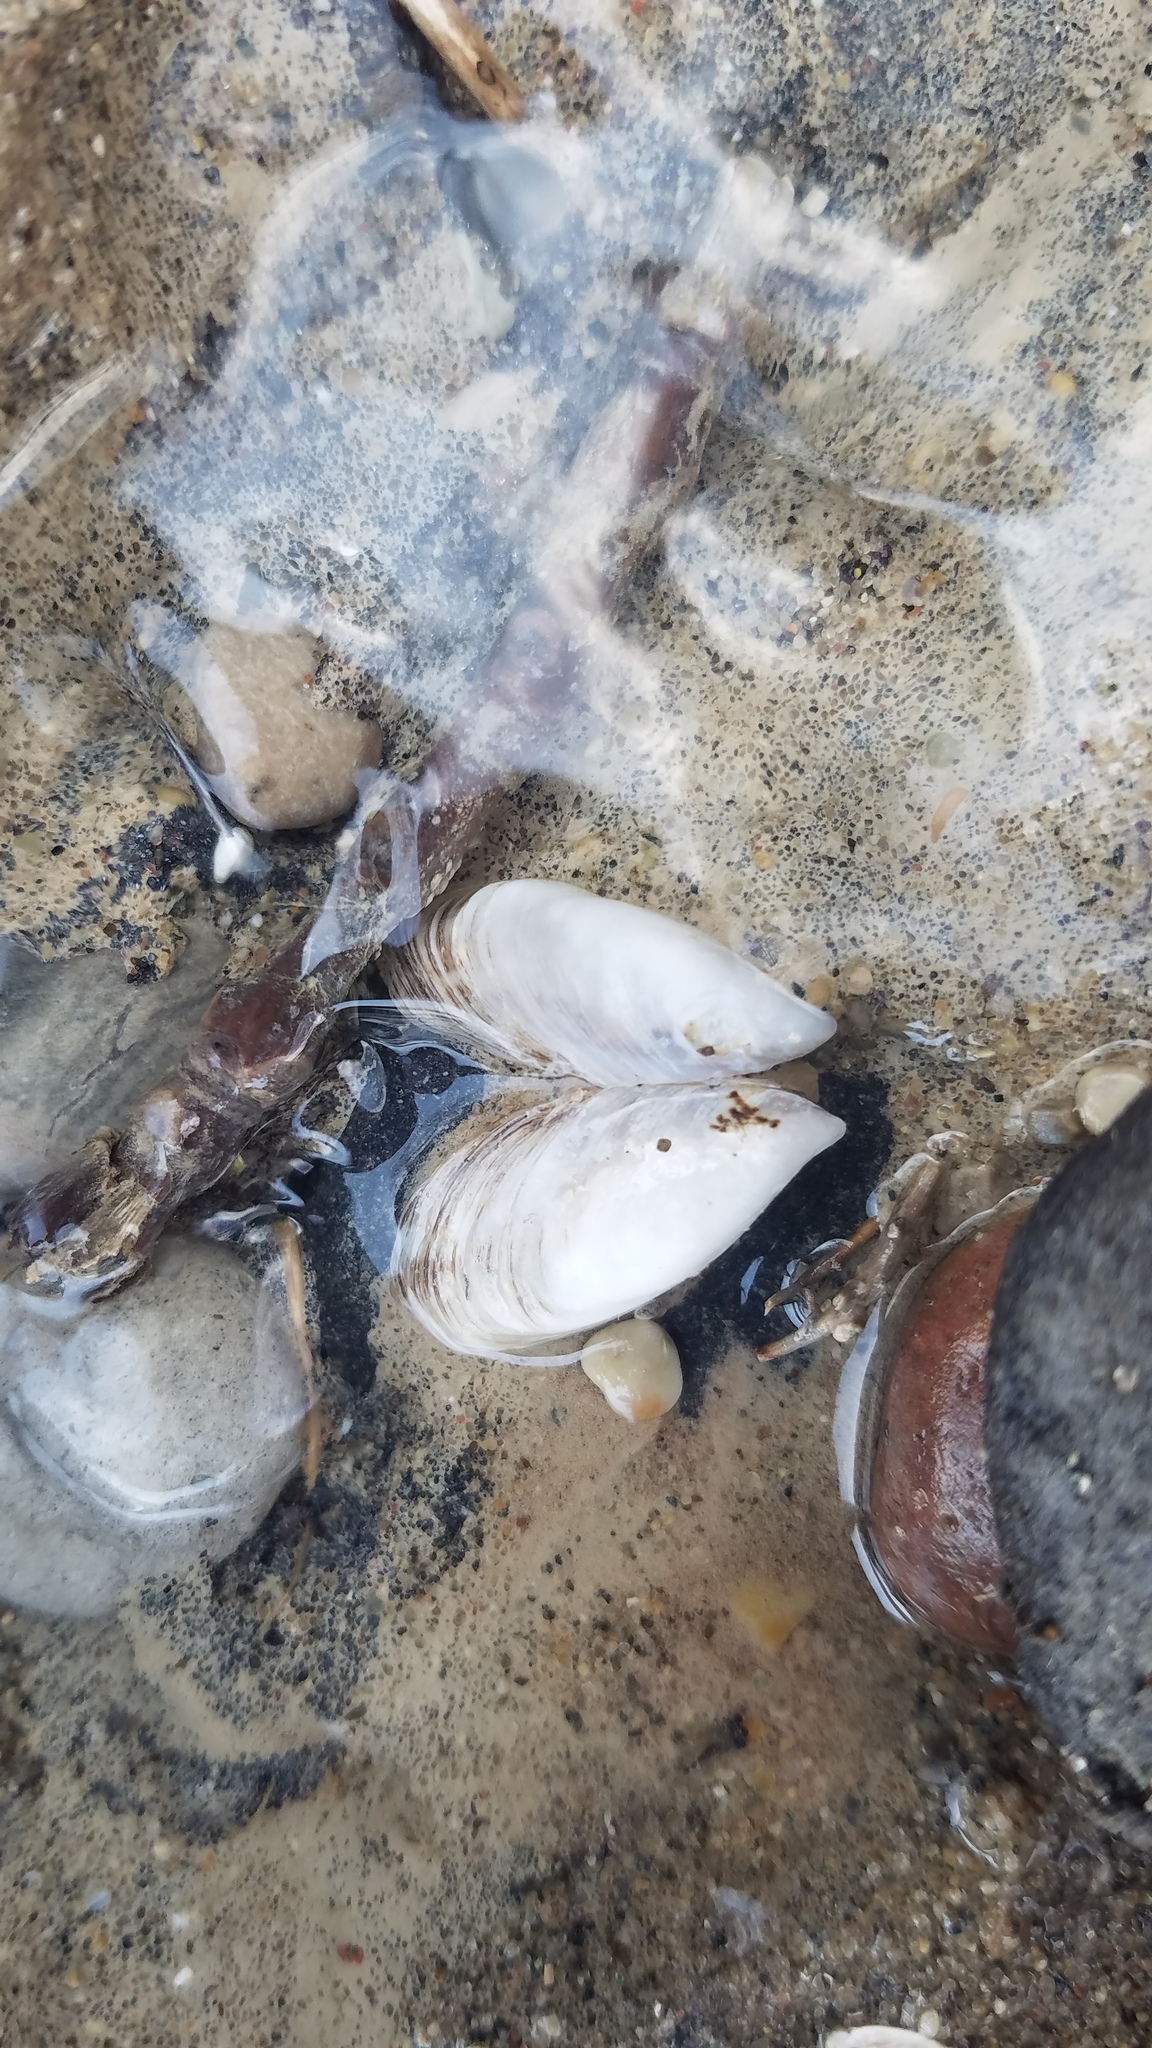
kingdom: Animalia
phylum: Mollusca
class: Bivalvia
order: Myida
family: Dreissenidae
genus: Dreissena
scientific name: Dreissena bugensis
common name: Quagga mussel
